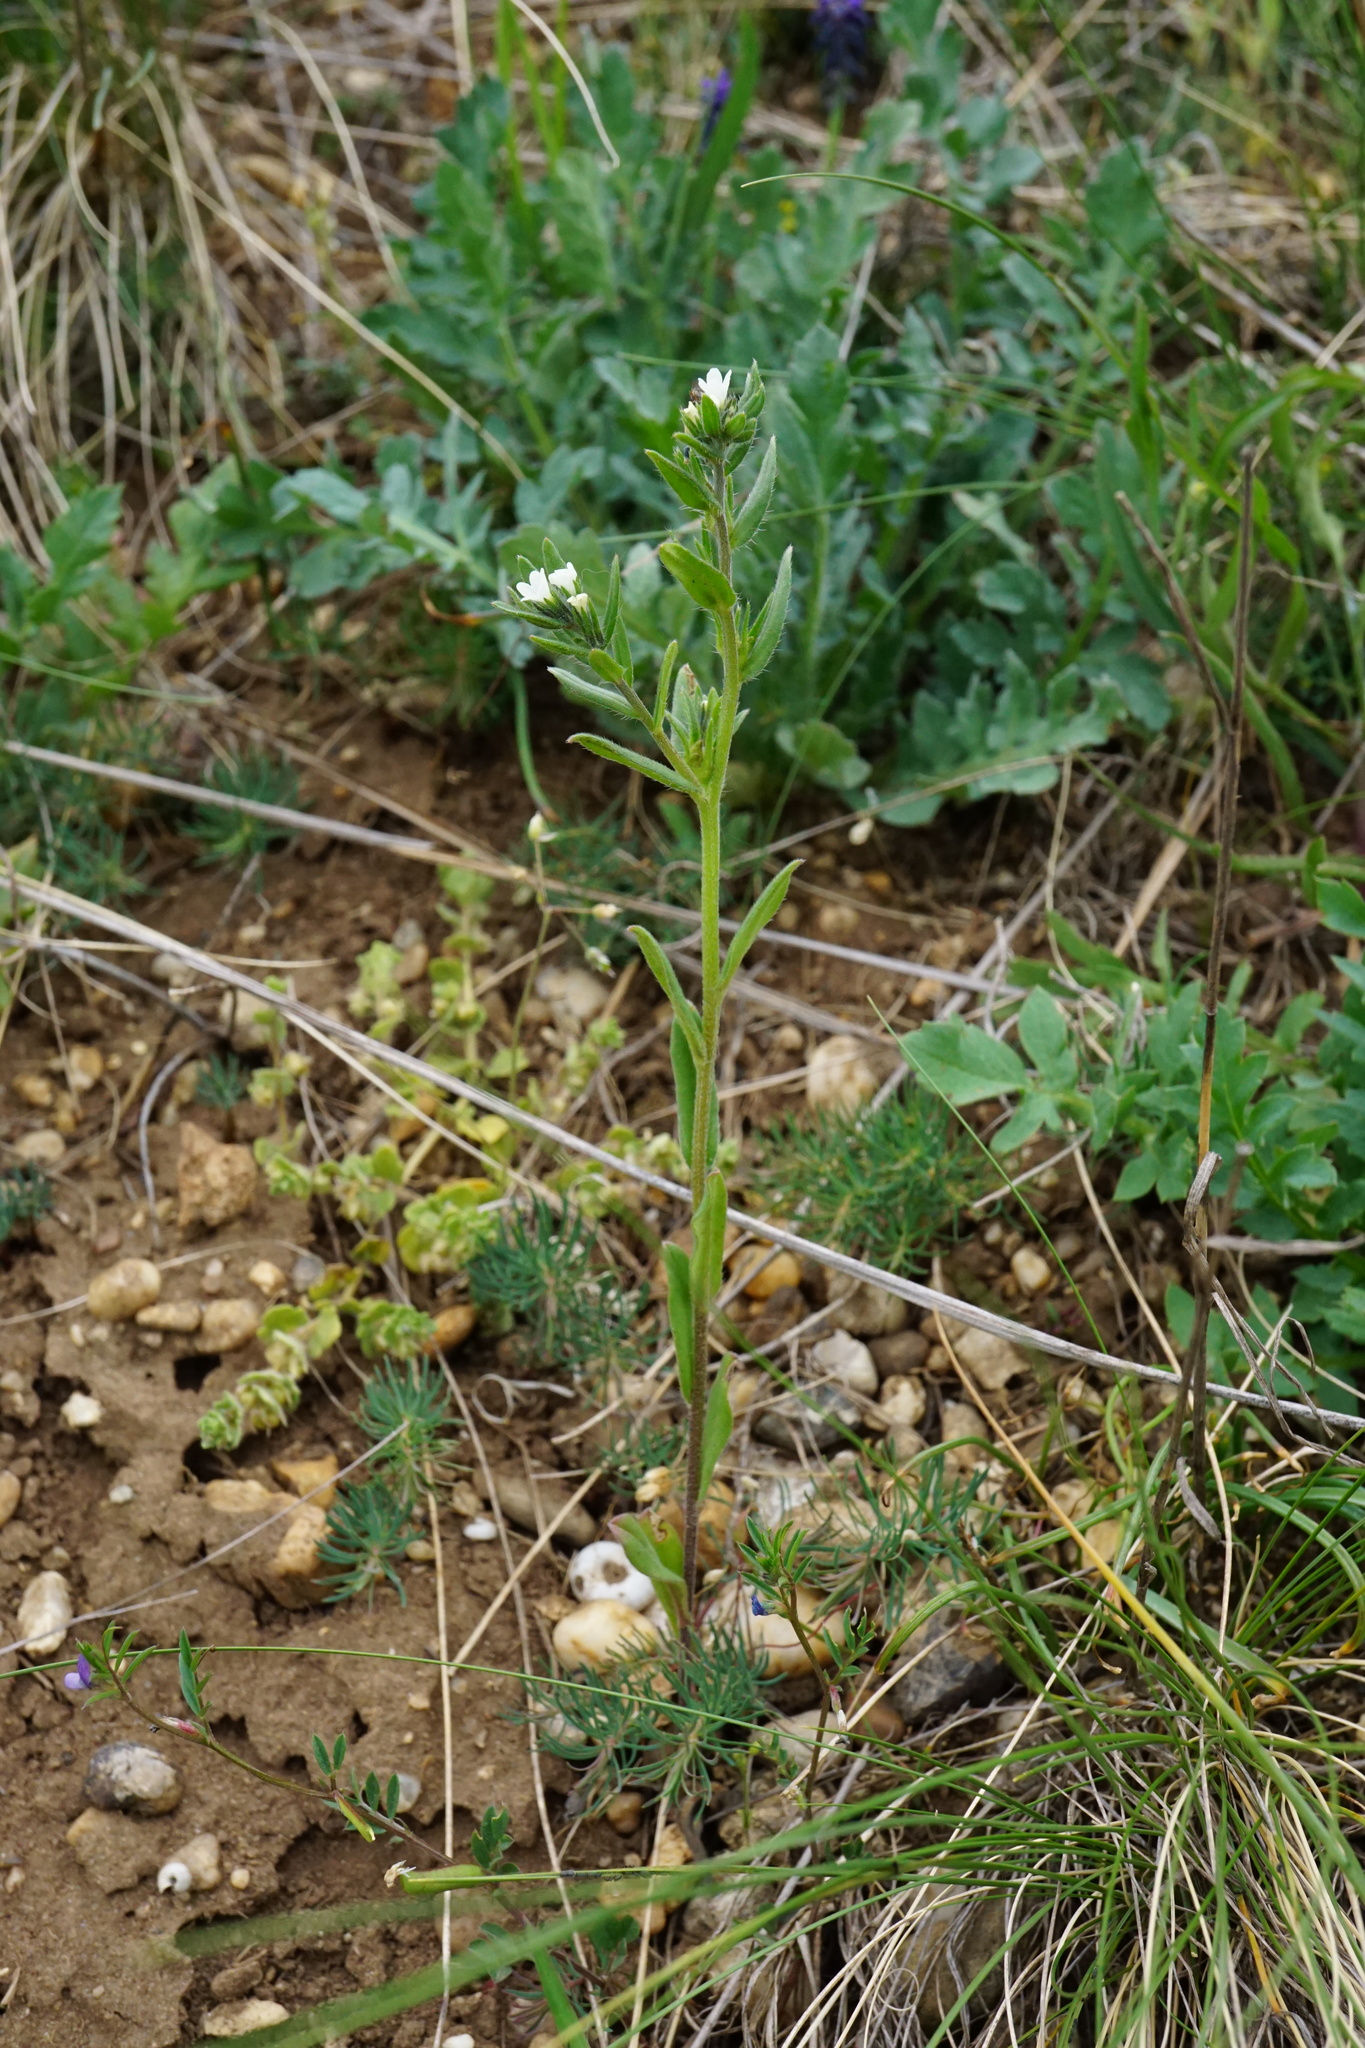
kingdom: Plantae
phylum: Tracheophyta
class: Magnoliopsida
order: Boraginales
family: Boraginaceae
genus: Buglossoides
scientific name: Buglossoides incrassata
